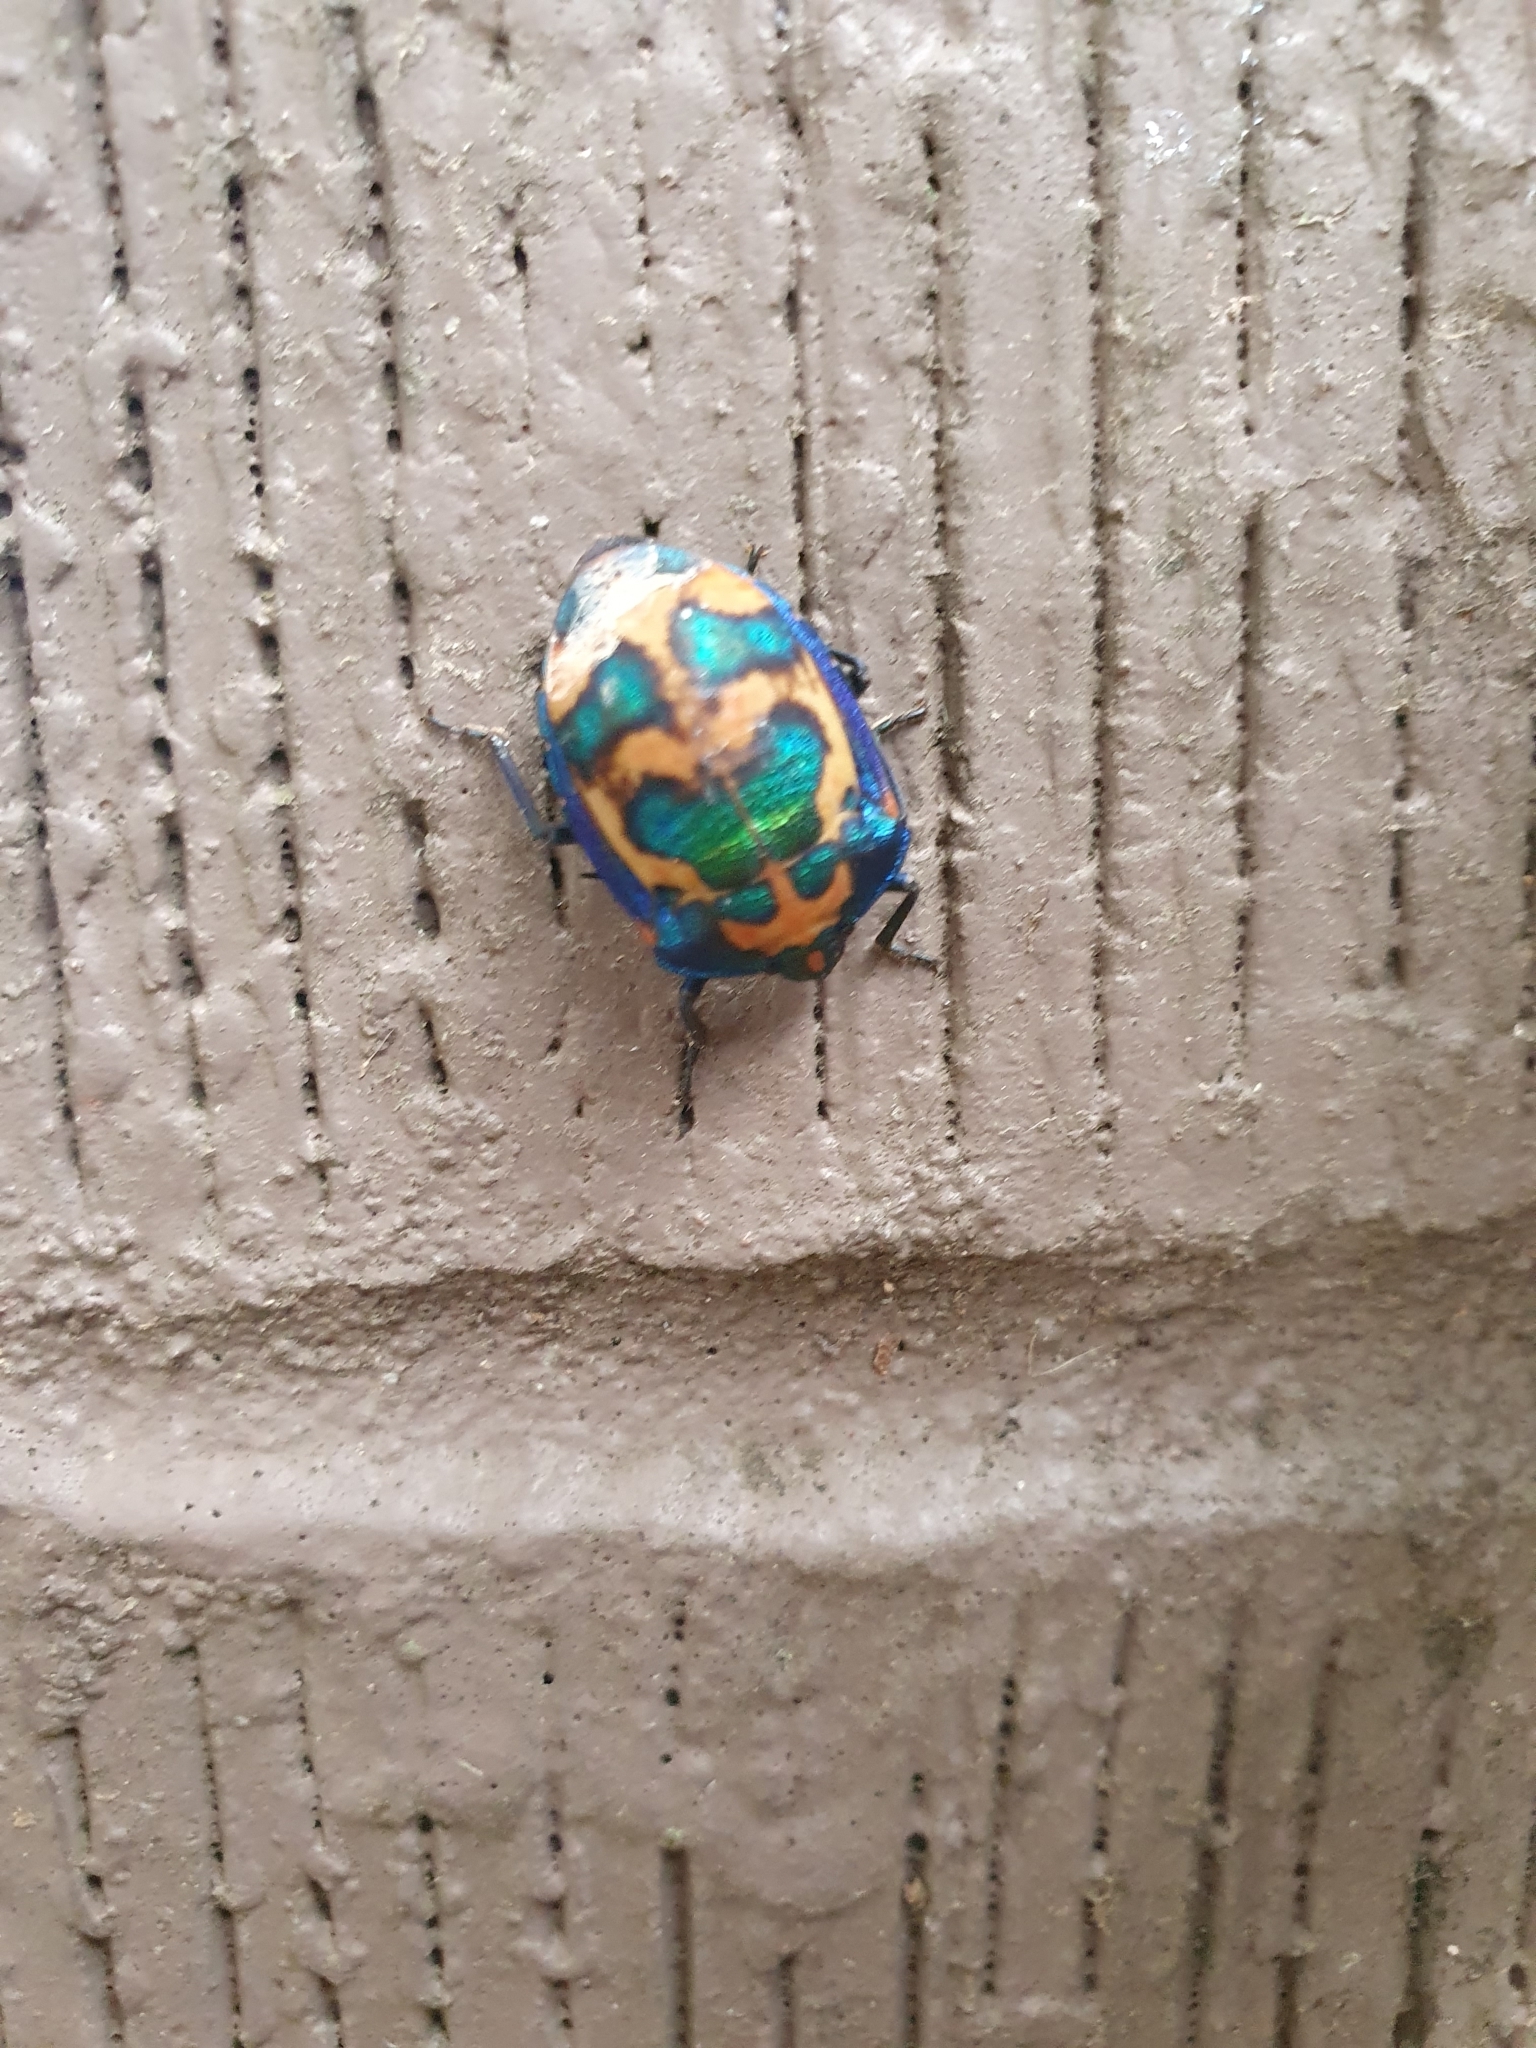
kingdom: Animalia
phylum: Arthropoda
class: Insecta
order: Hemiptera
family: Scutelleridae
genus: Tectocoris
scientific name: Tectocoris diophthalmus
